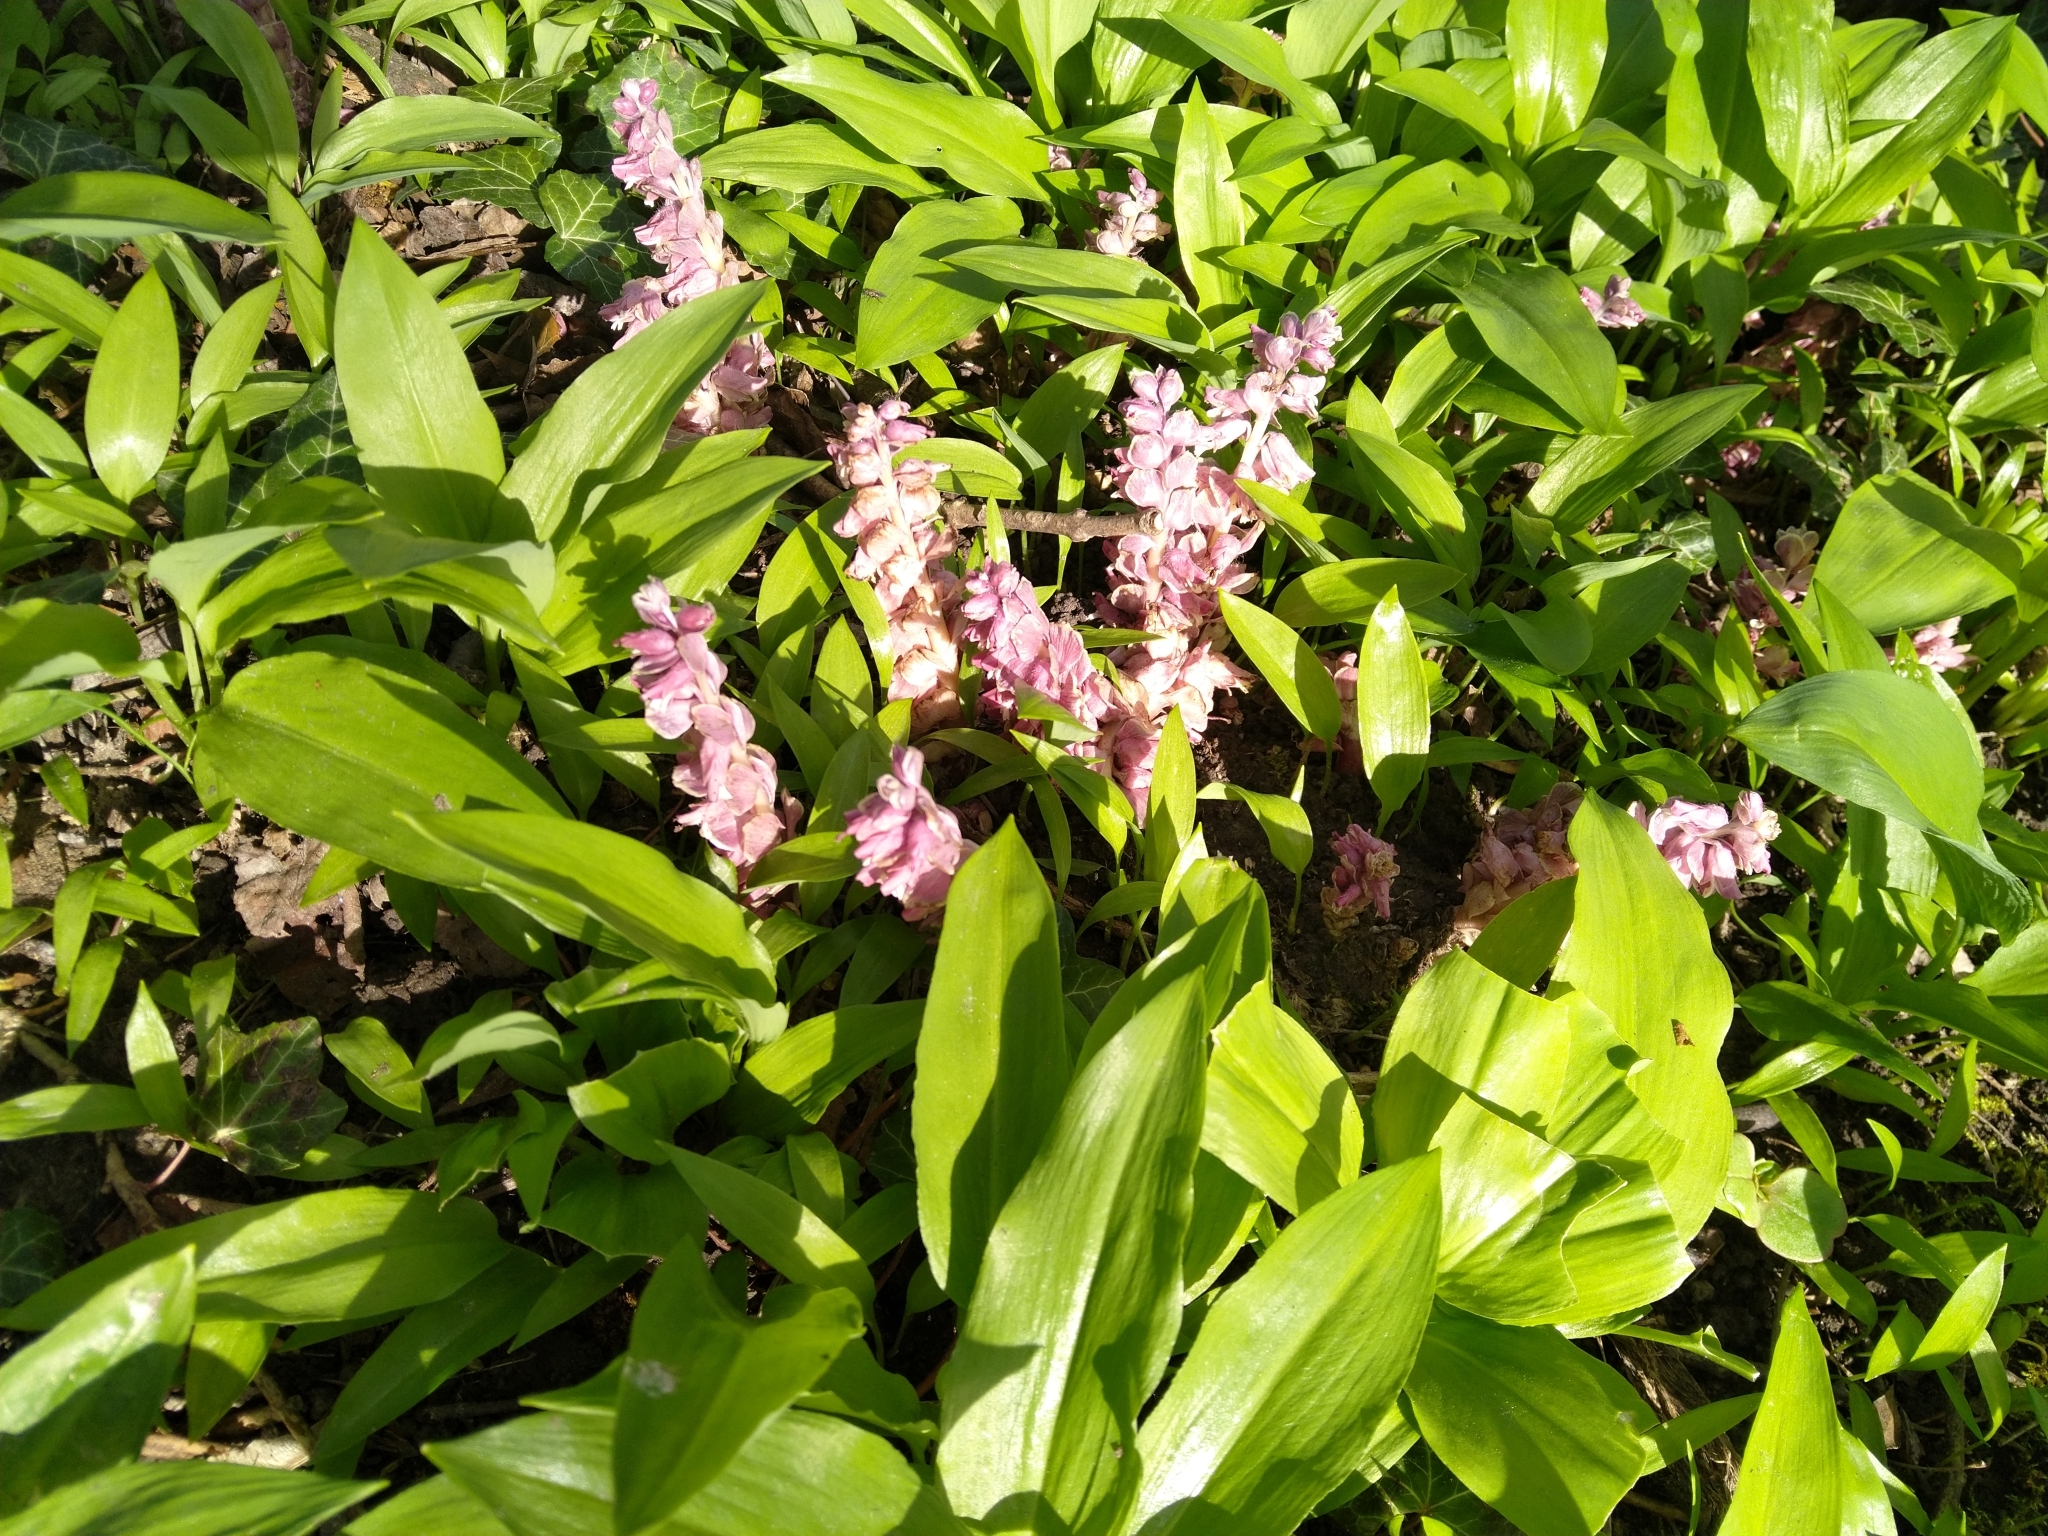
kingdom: Plantae
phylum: Tracheophyta
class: Magnoliopsida
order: Lamiales
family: Orobanchaceae
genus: Lathraea
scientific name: Lathraea squamaria
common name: Toothwort
